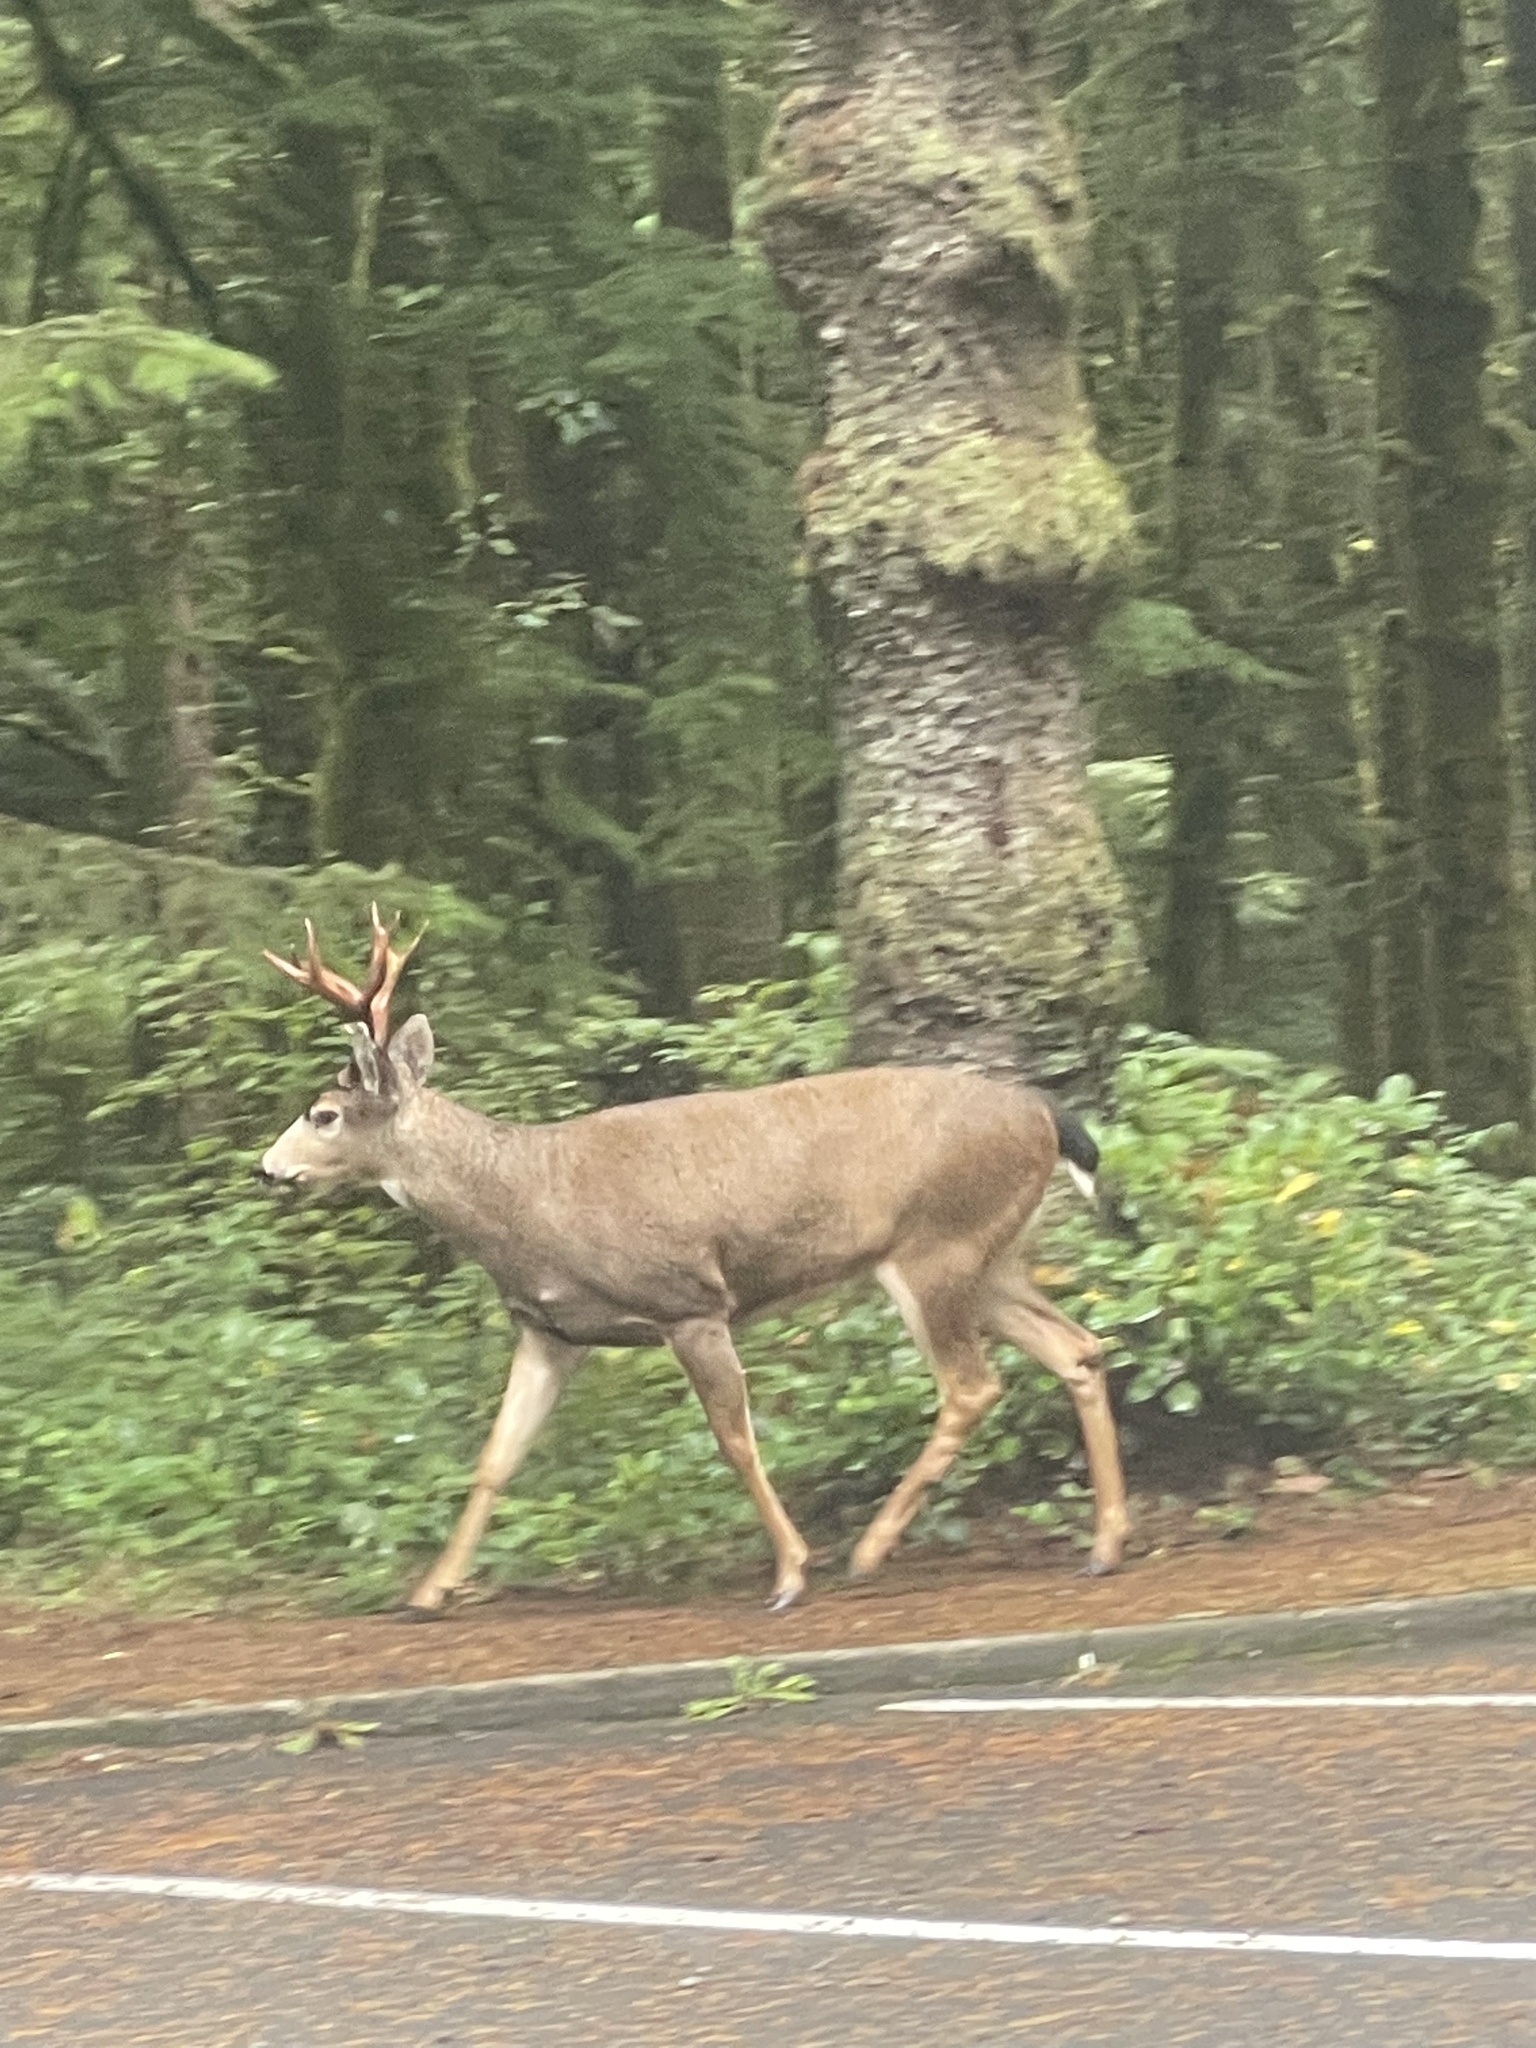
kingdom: Animalia
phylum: Chordata
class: Mammalia
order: Artiodactyla
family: Cervidae
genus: Odocoileus
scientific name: Odocoileus hemionus
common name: Mule deer
